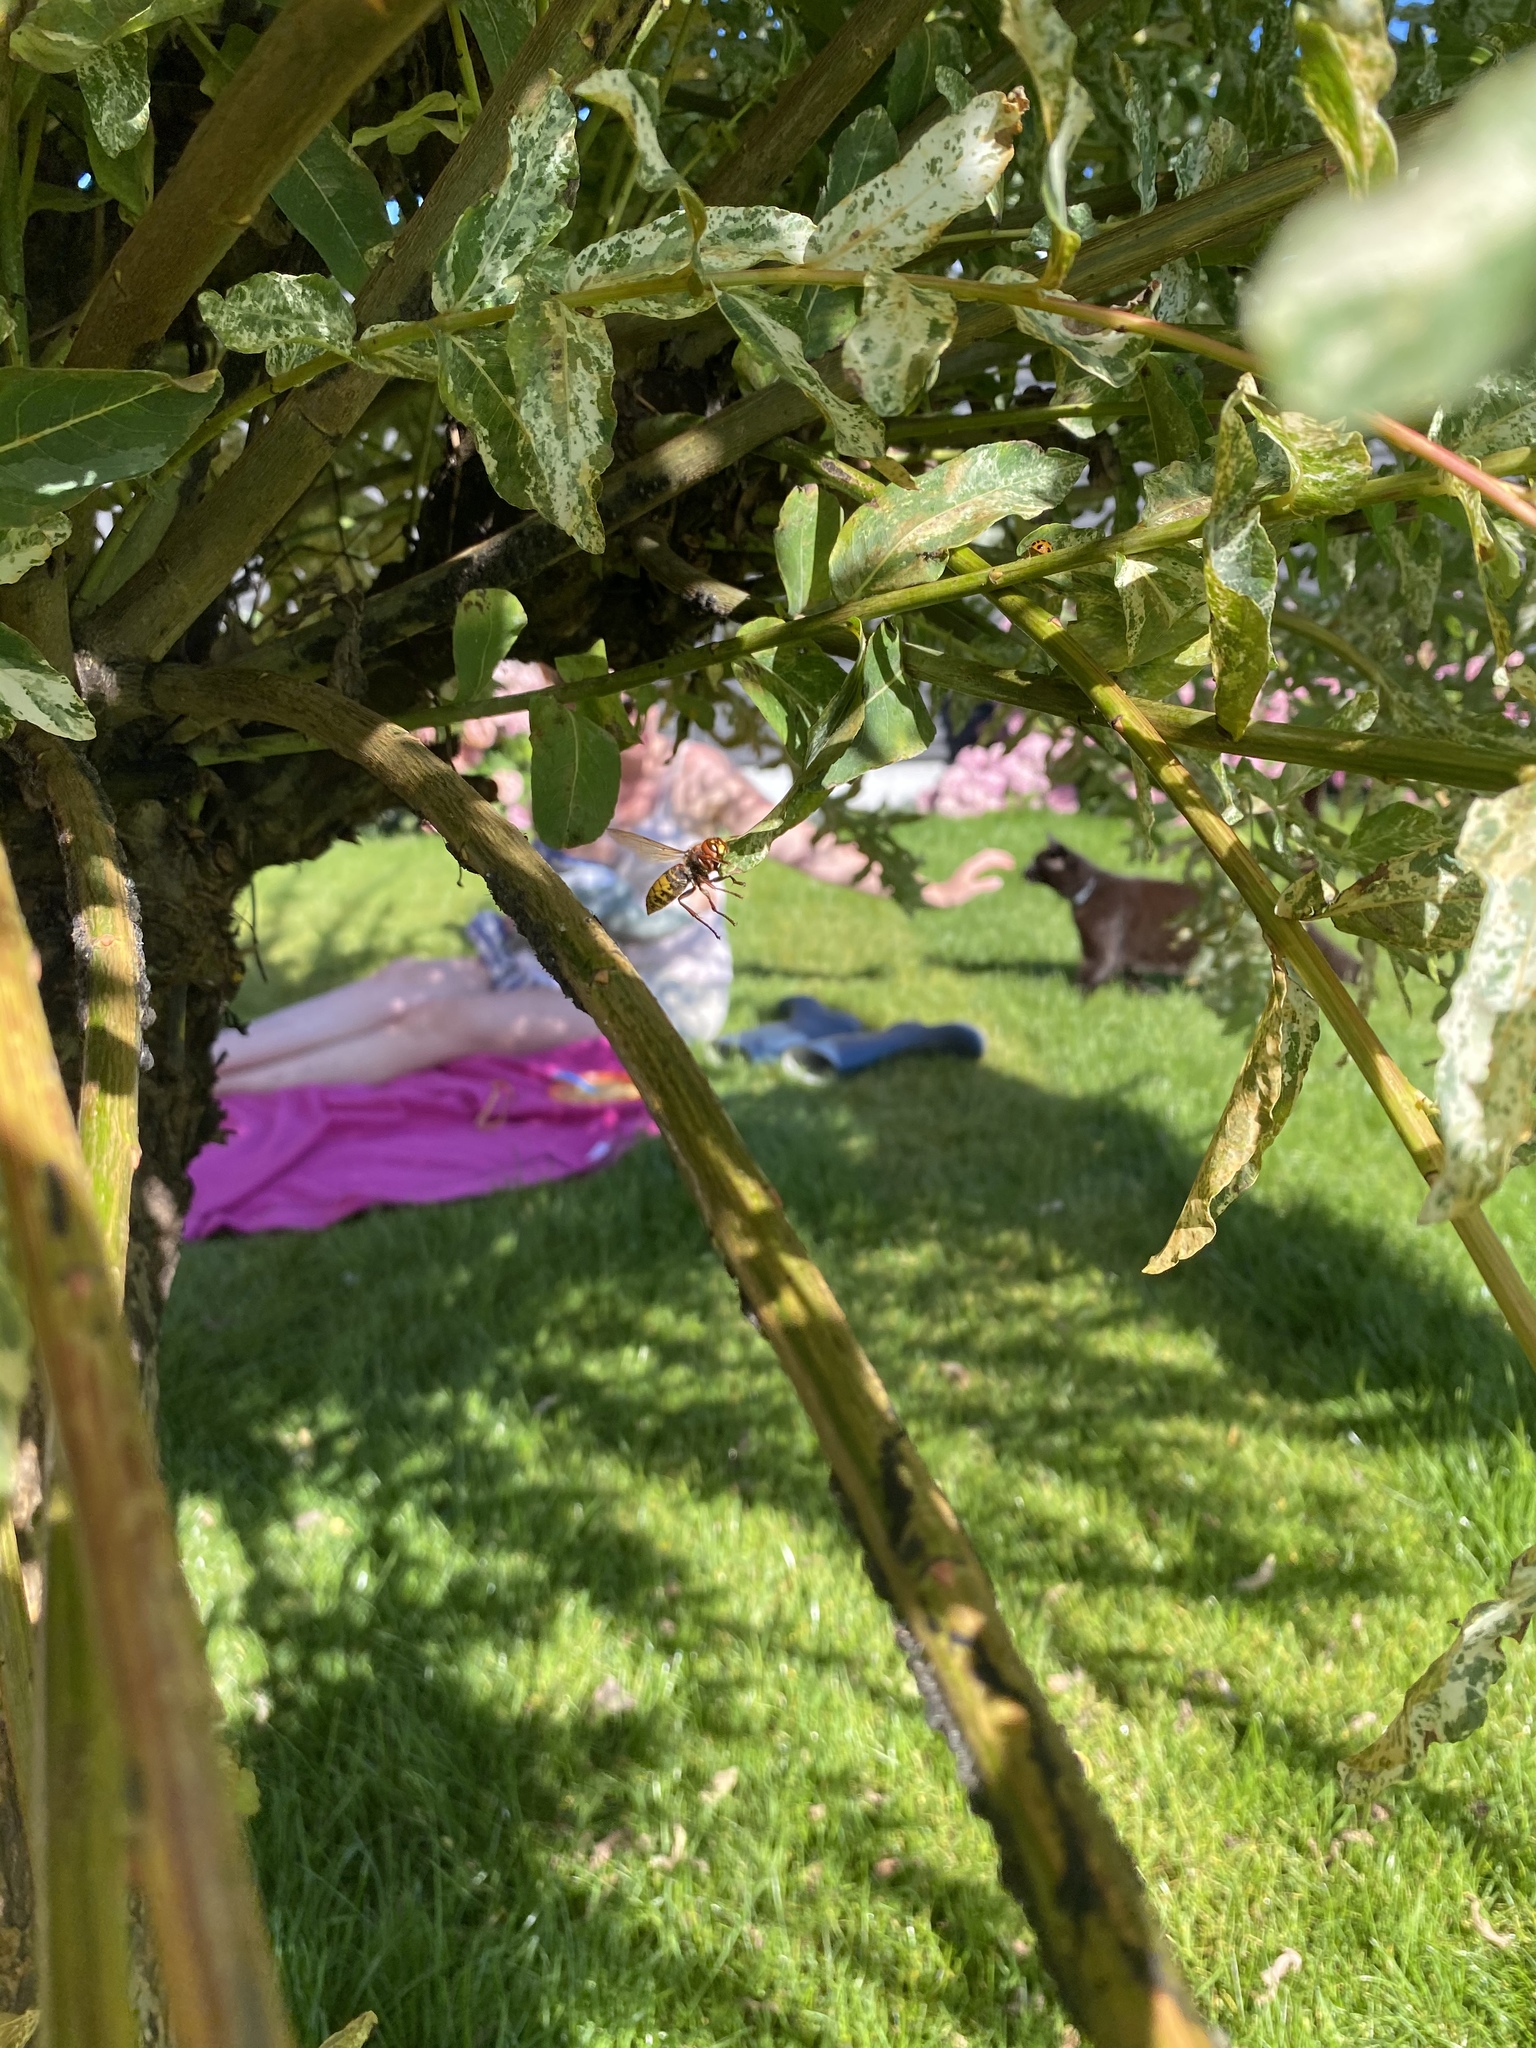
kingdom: Animalia
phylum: Arthropoda
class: Insecta
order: Hymenoptera
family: Vespidae
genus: Vespa
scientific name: Vespa crabro
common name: Hornet
